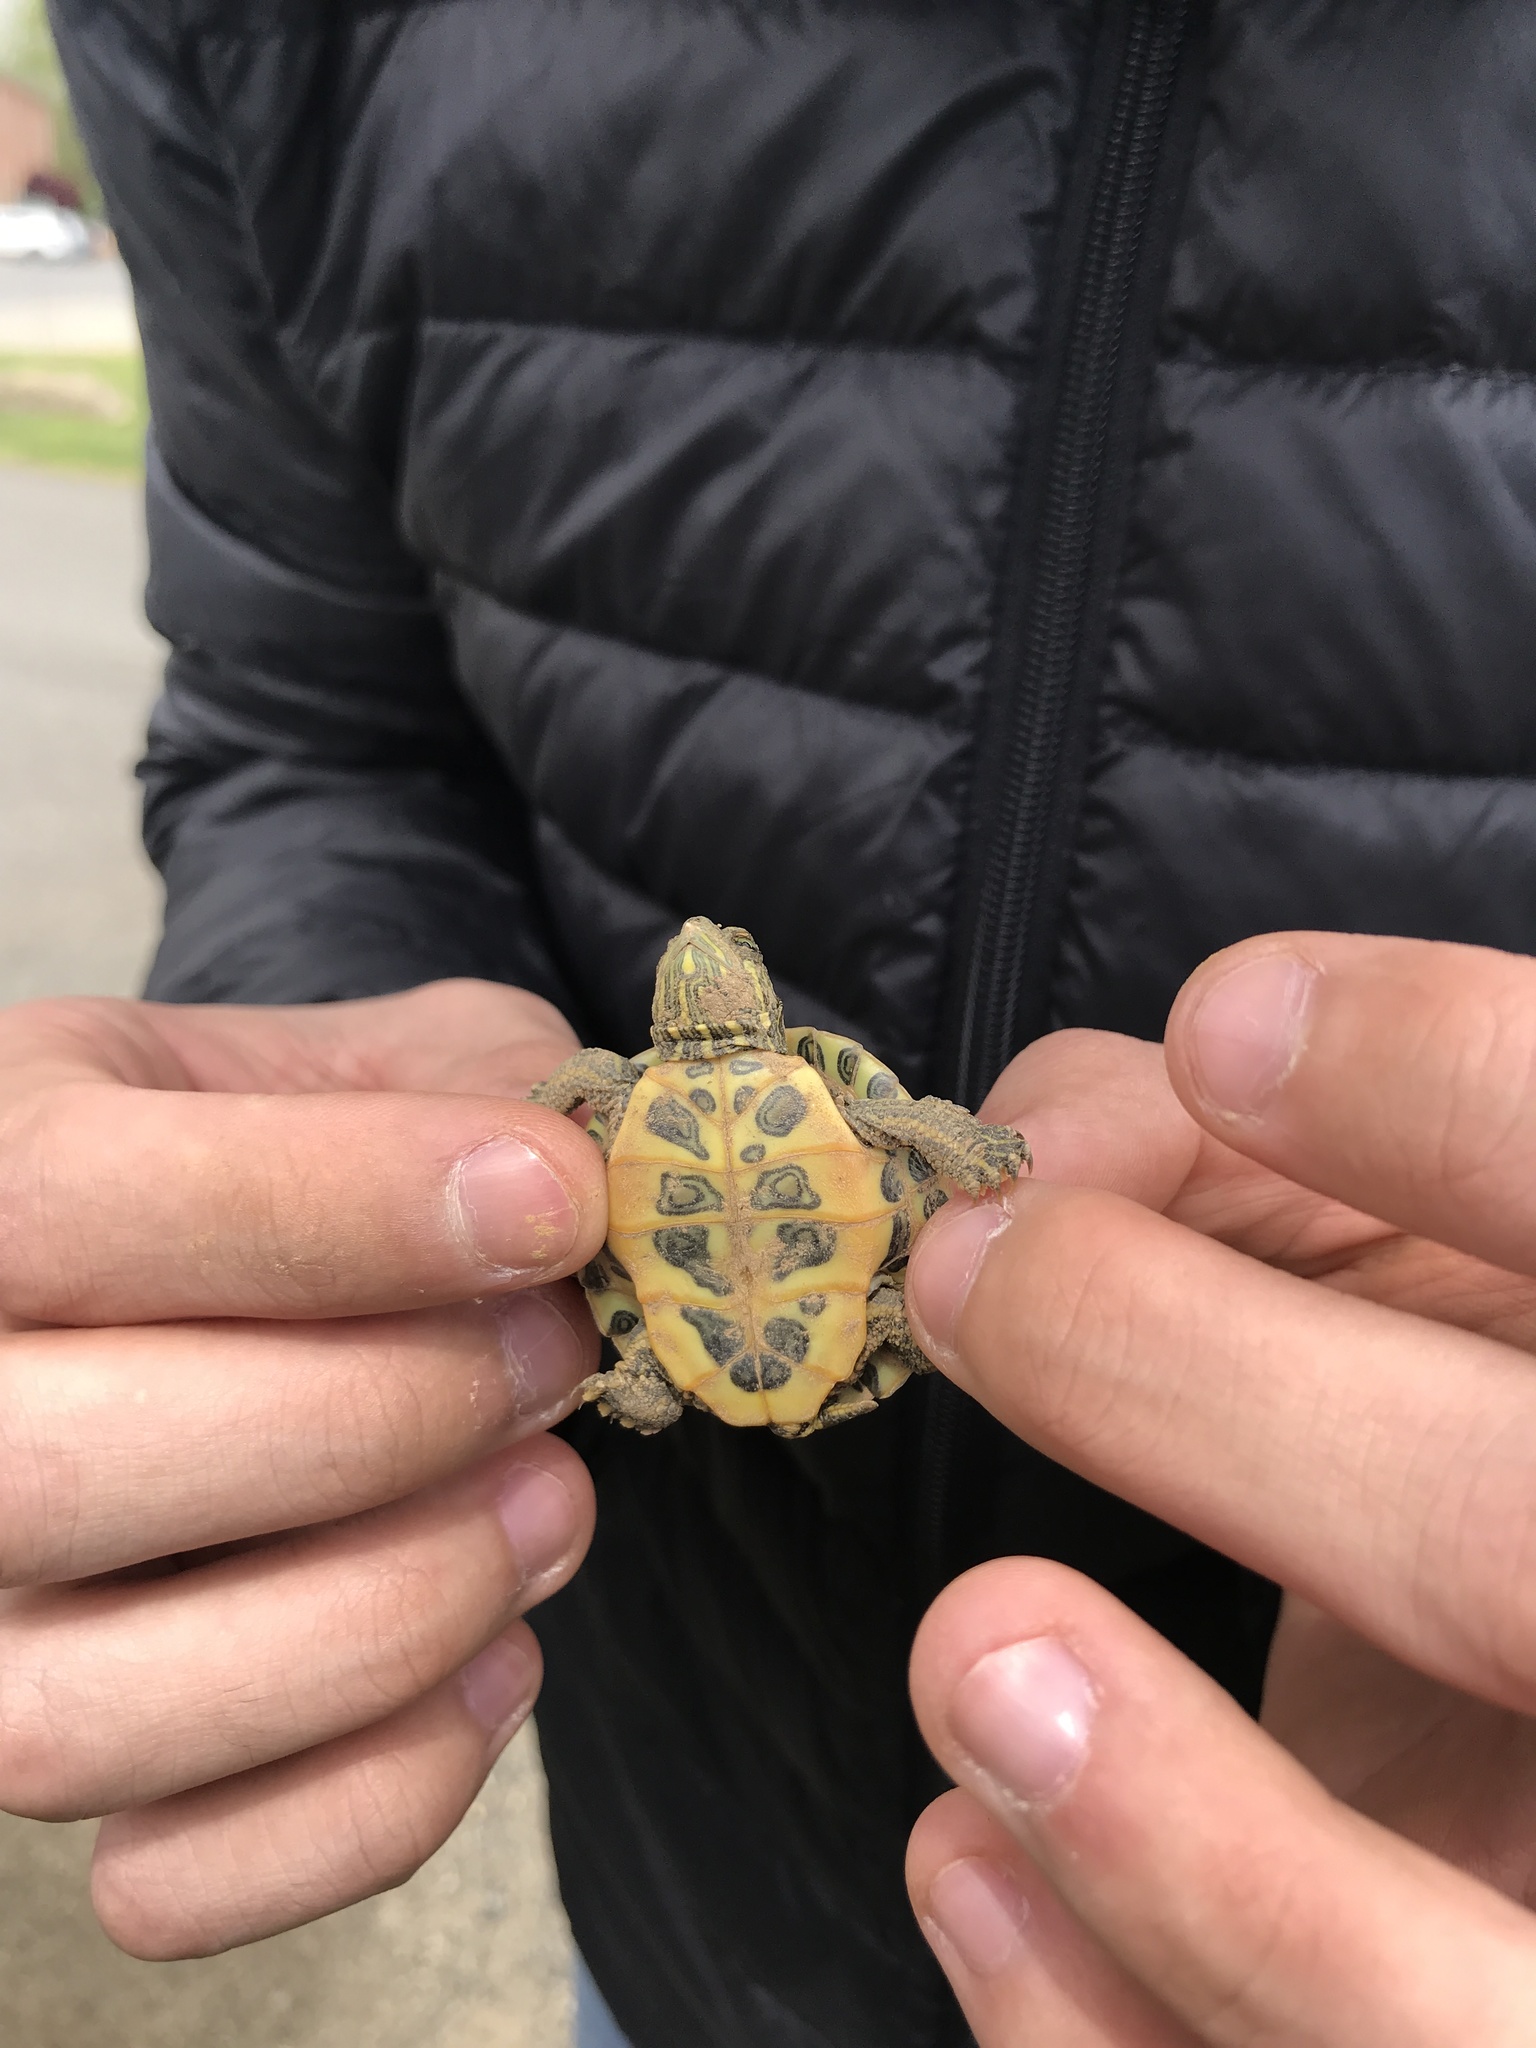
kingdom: Animalia
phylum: Chordata
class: Testudines
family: Emydidae
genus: Trachemys
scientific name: Trachemys scripta
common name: Slider
